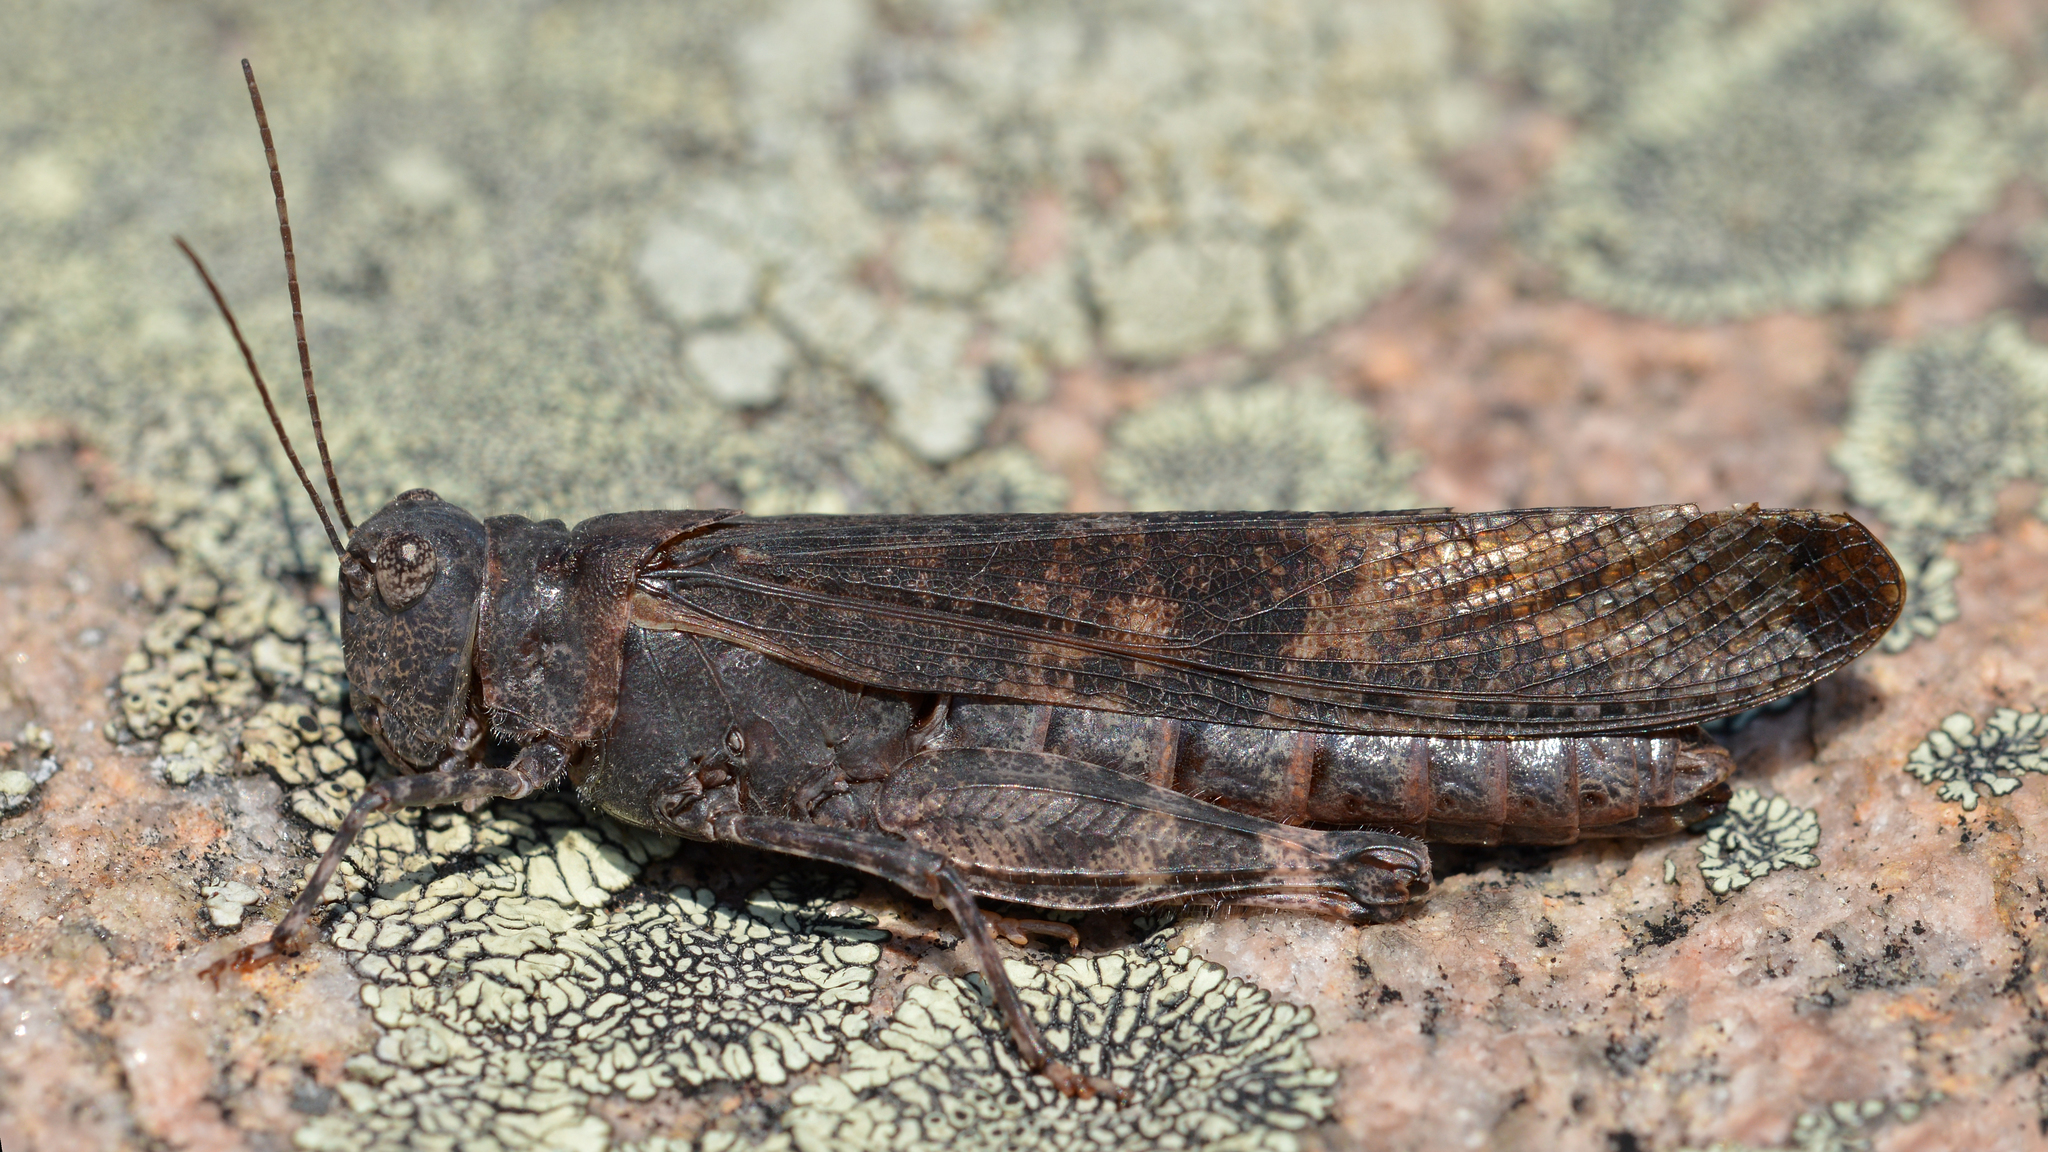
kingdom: Animalia
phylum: Arthropoda
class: Insecta
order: Orthoptera
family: Acrididae
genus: Trimerotropis
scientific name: Trimerotropis verruculata
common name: Crackling forest grasshopper
